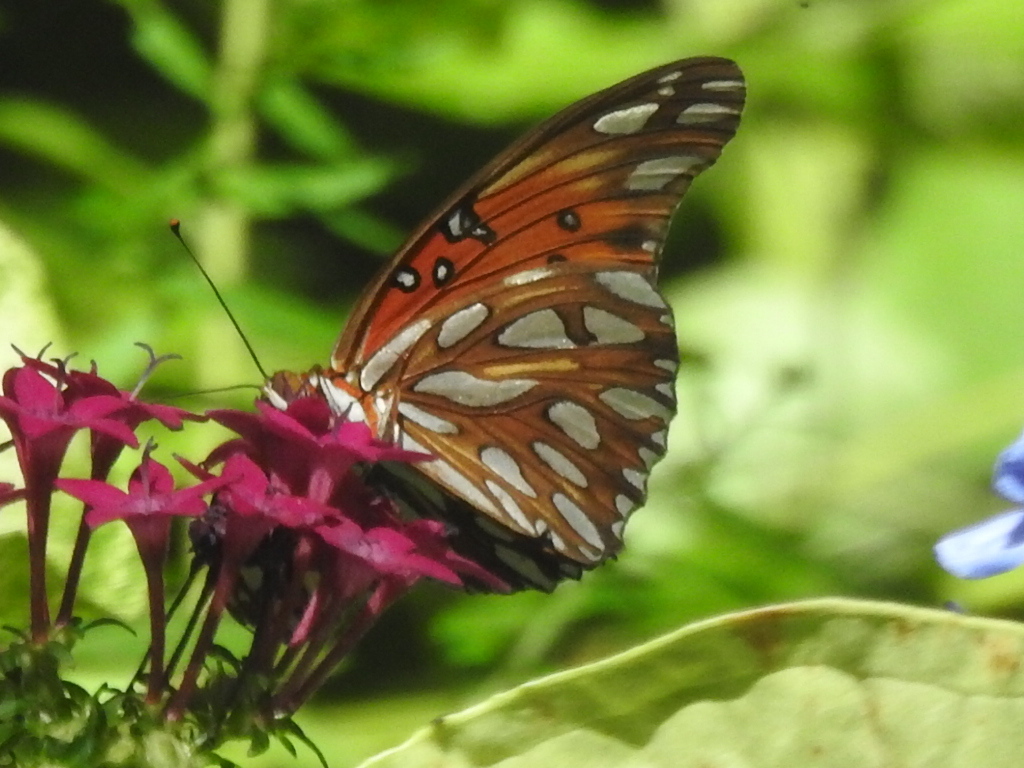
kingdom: Animalia
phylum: Arthropoda
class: Insecta
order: Lepidoptera
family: Nymphalidae
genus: Dione
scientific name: Dione vanillae
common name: Gulf fritillary
